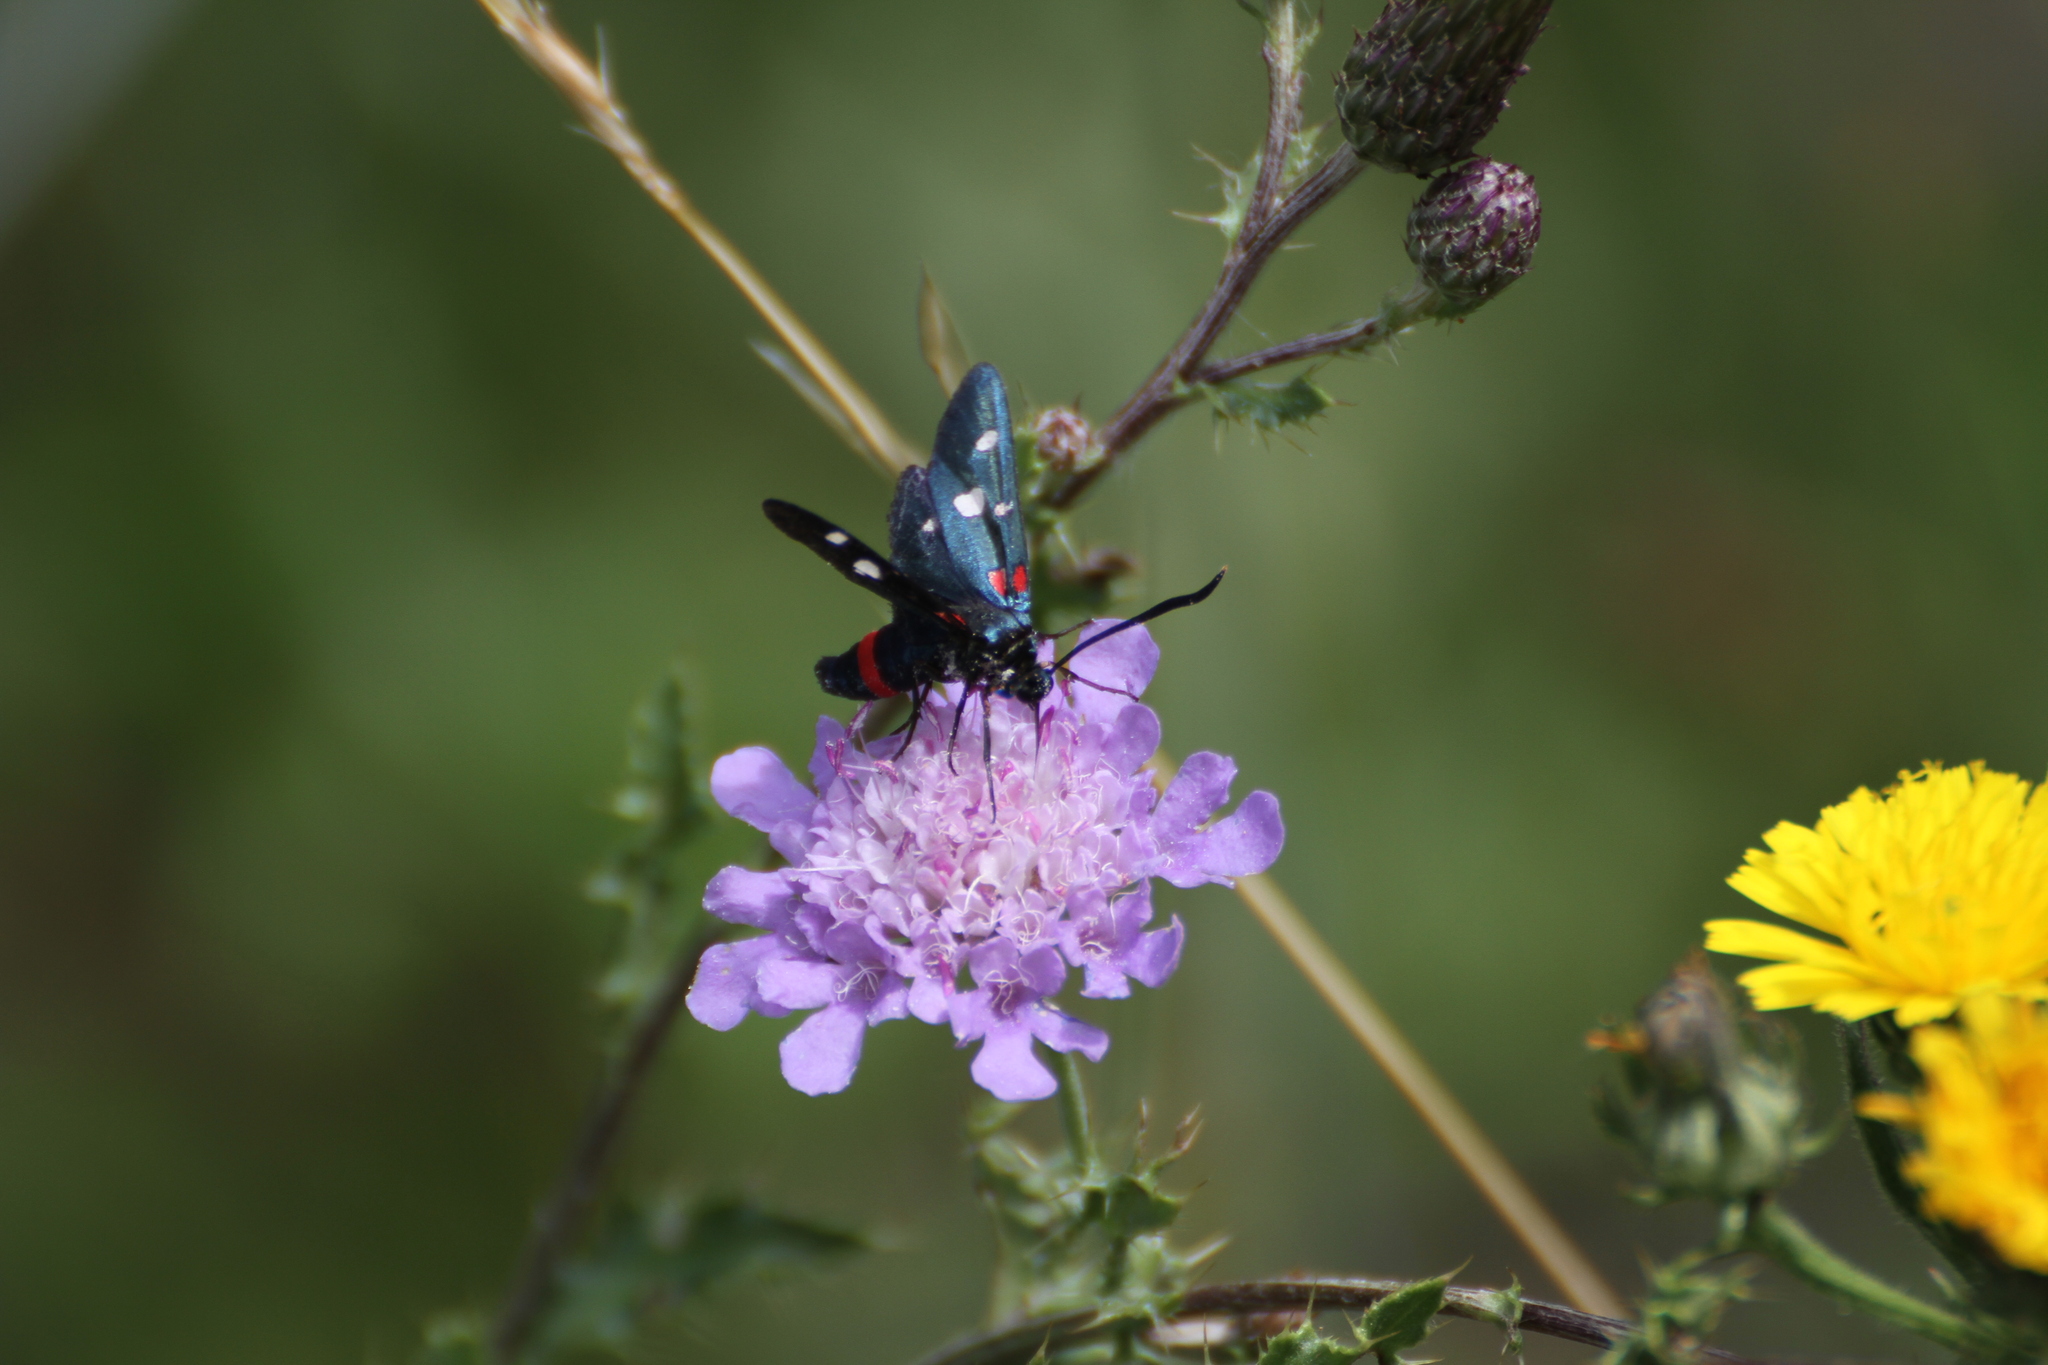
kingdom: Animalia
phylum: Arthropoda
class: Insecta
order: Lepidoptera
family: Zygaenidae
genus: Zygaena
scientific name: Zygaena ephialtes
